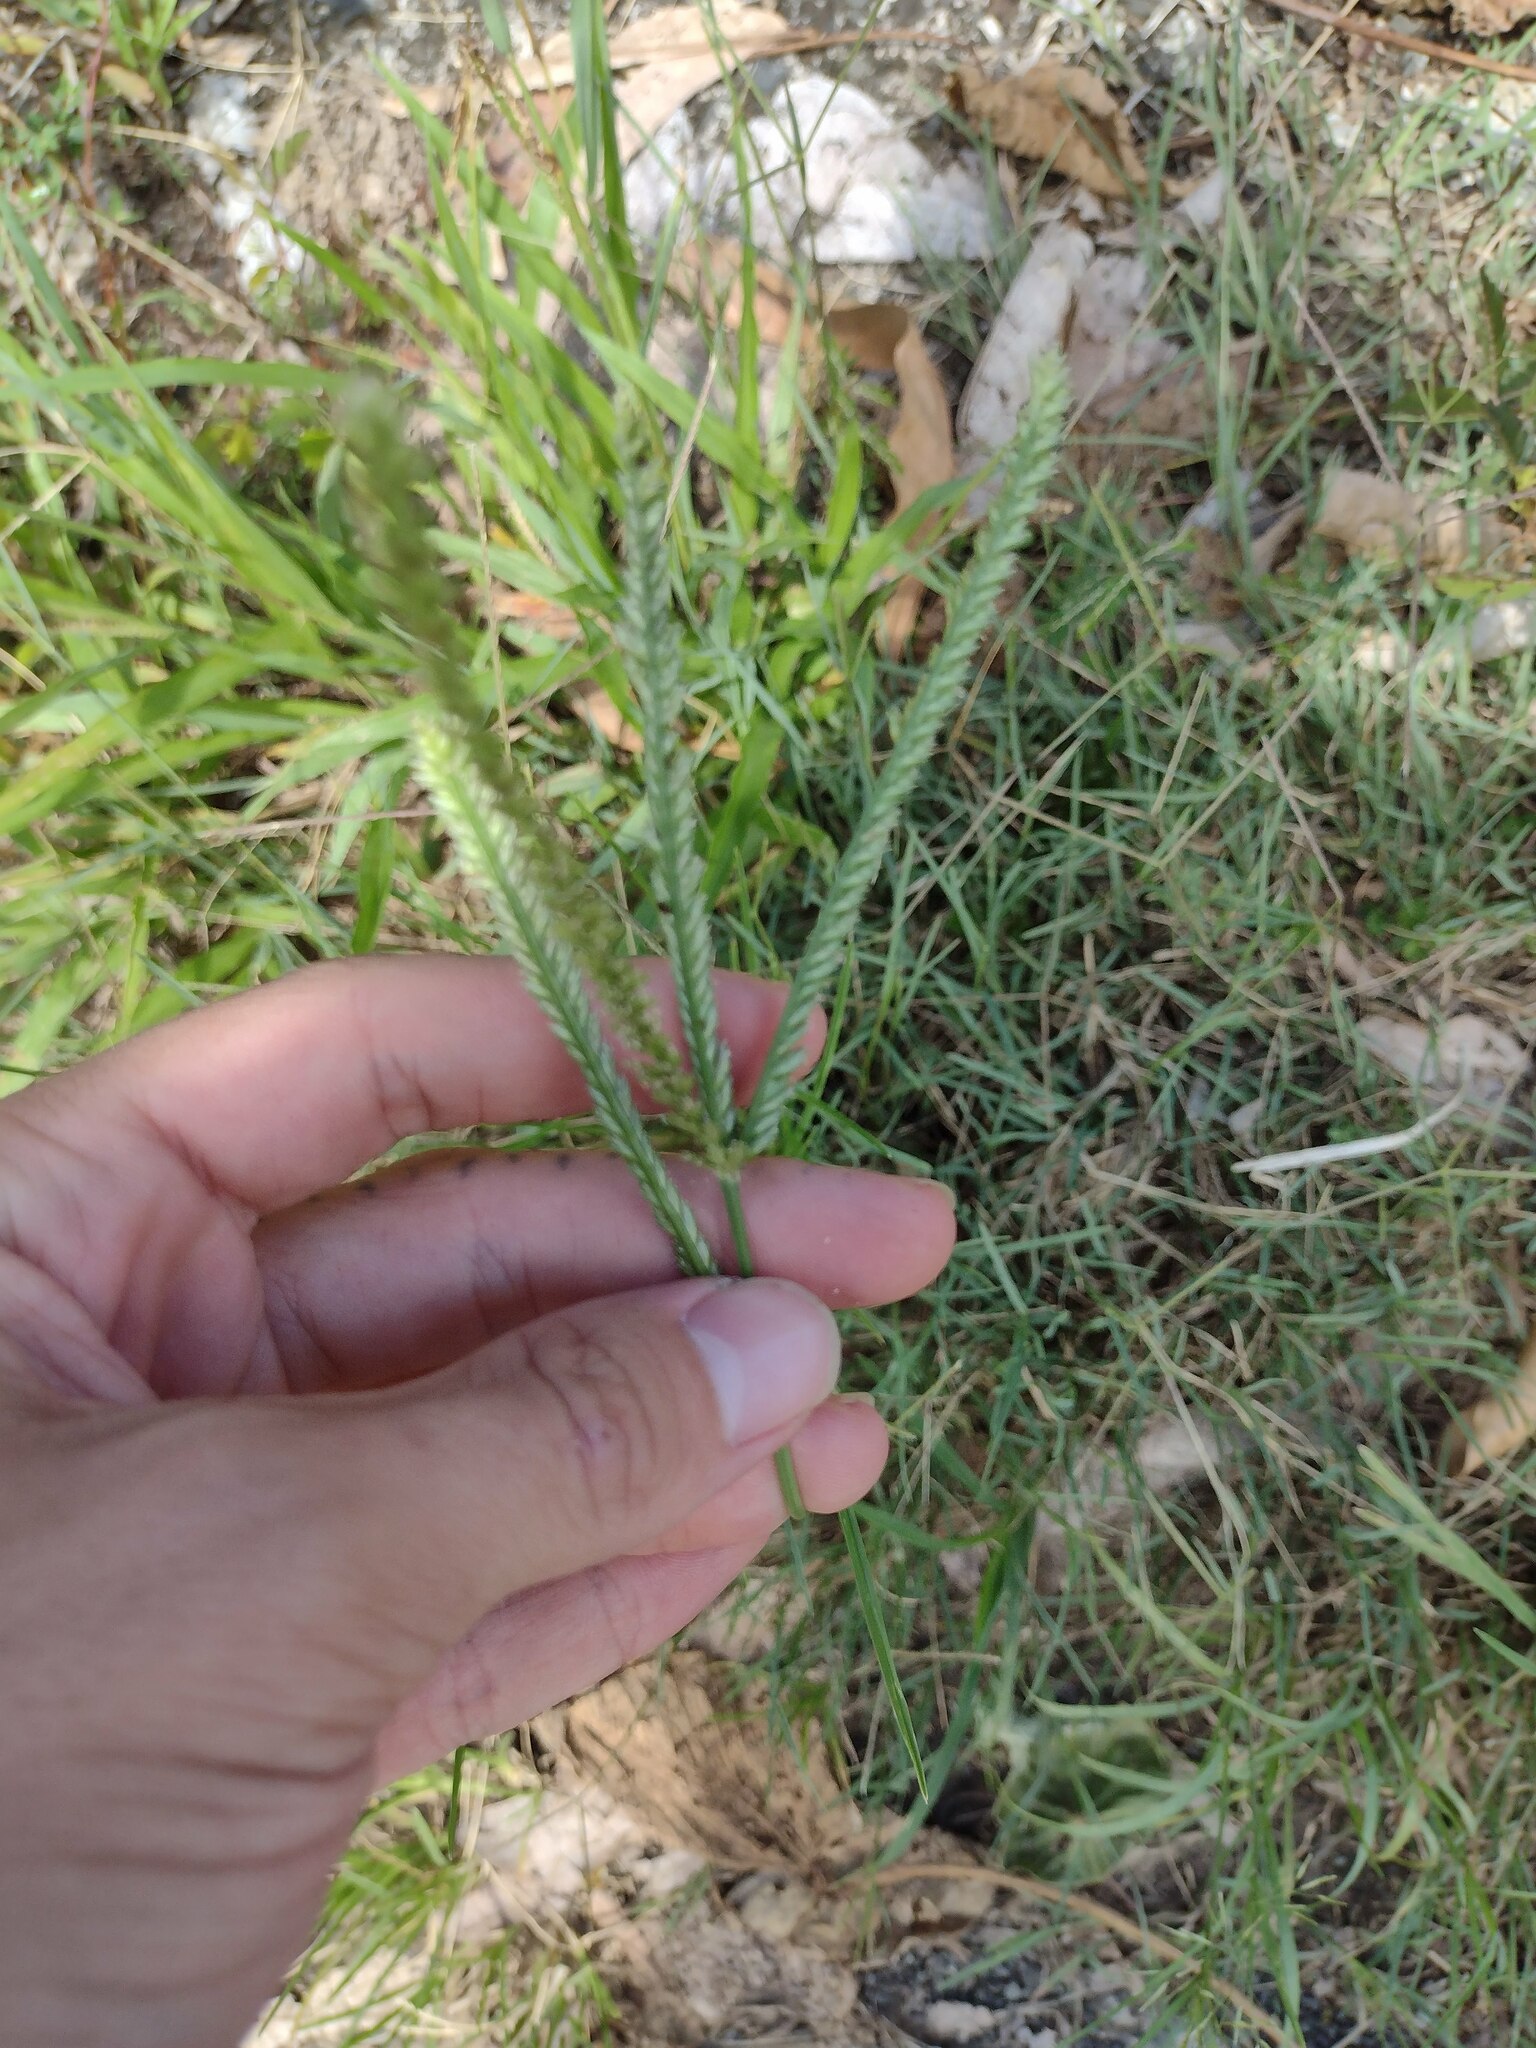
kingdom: Plantae
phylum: Tracheophyta
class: Liliopsida
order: Poales
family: Poaceae
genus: Eleusine
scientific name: Eleusine indica
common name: Yard-grass
